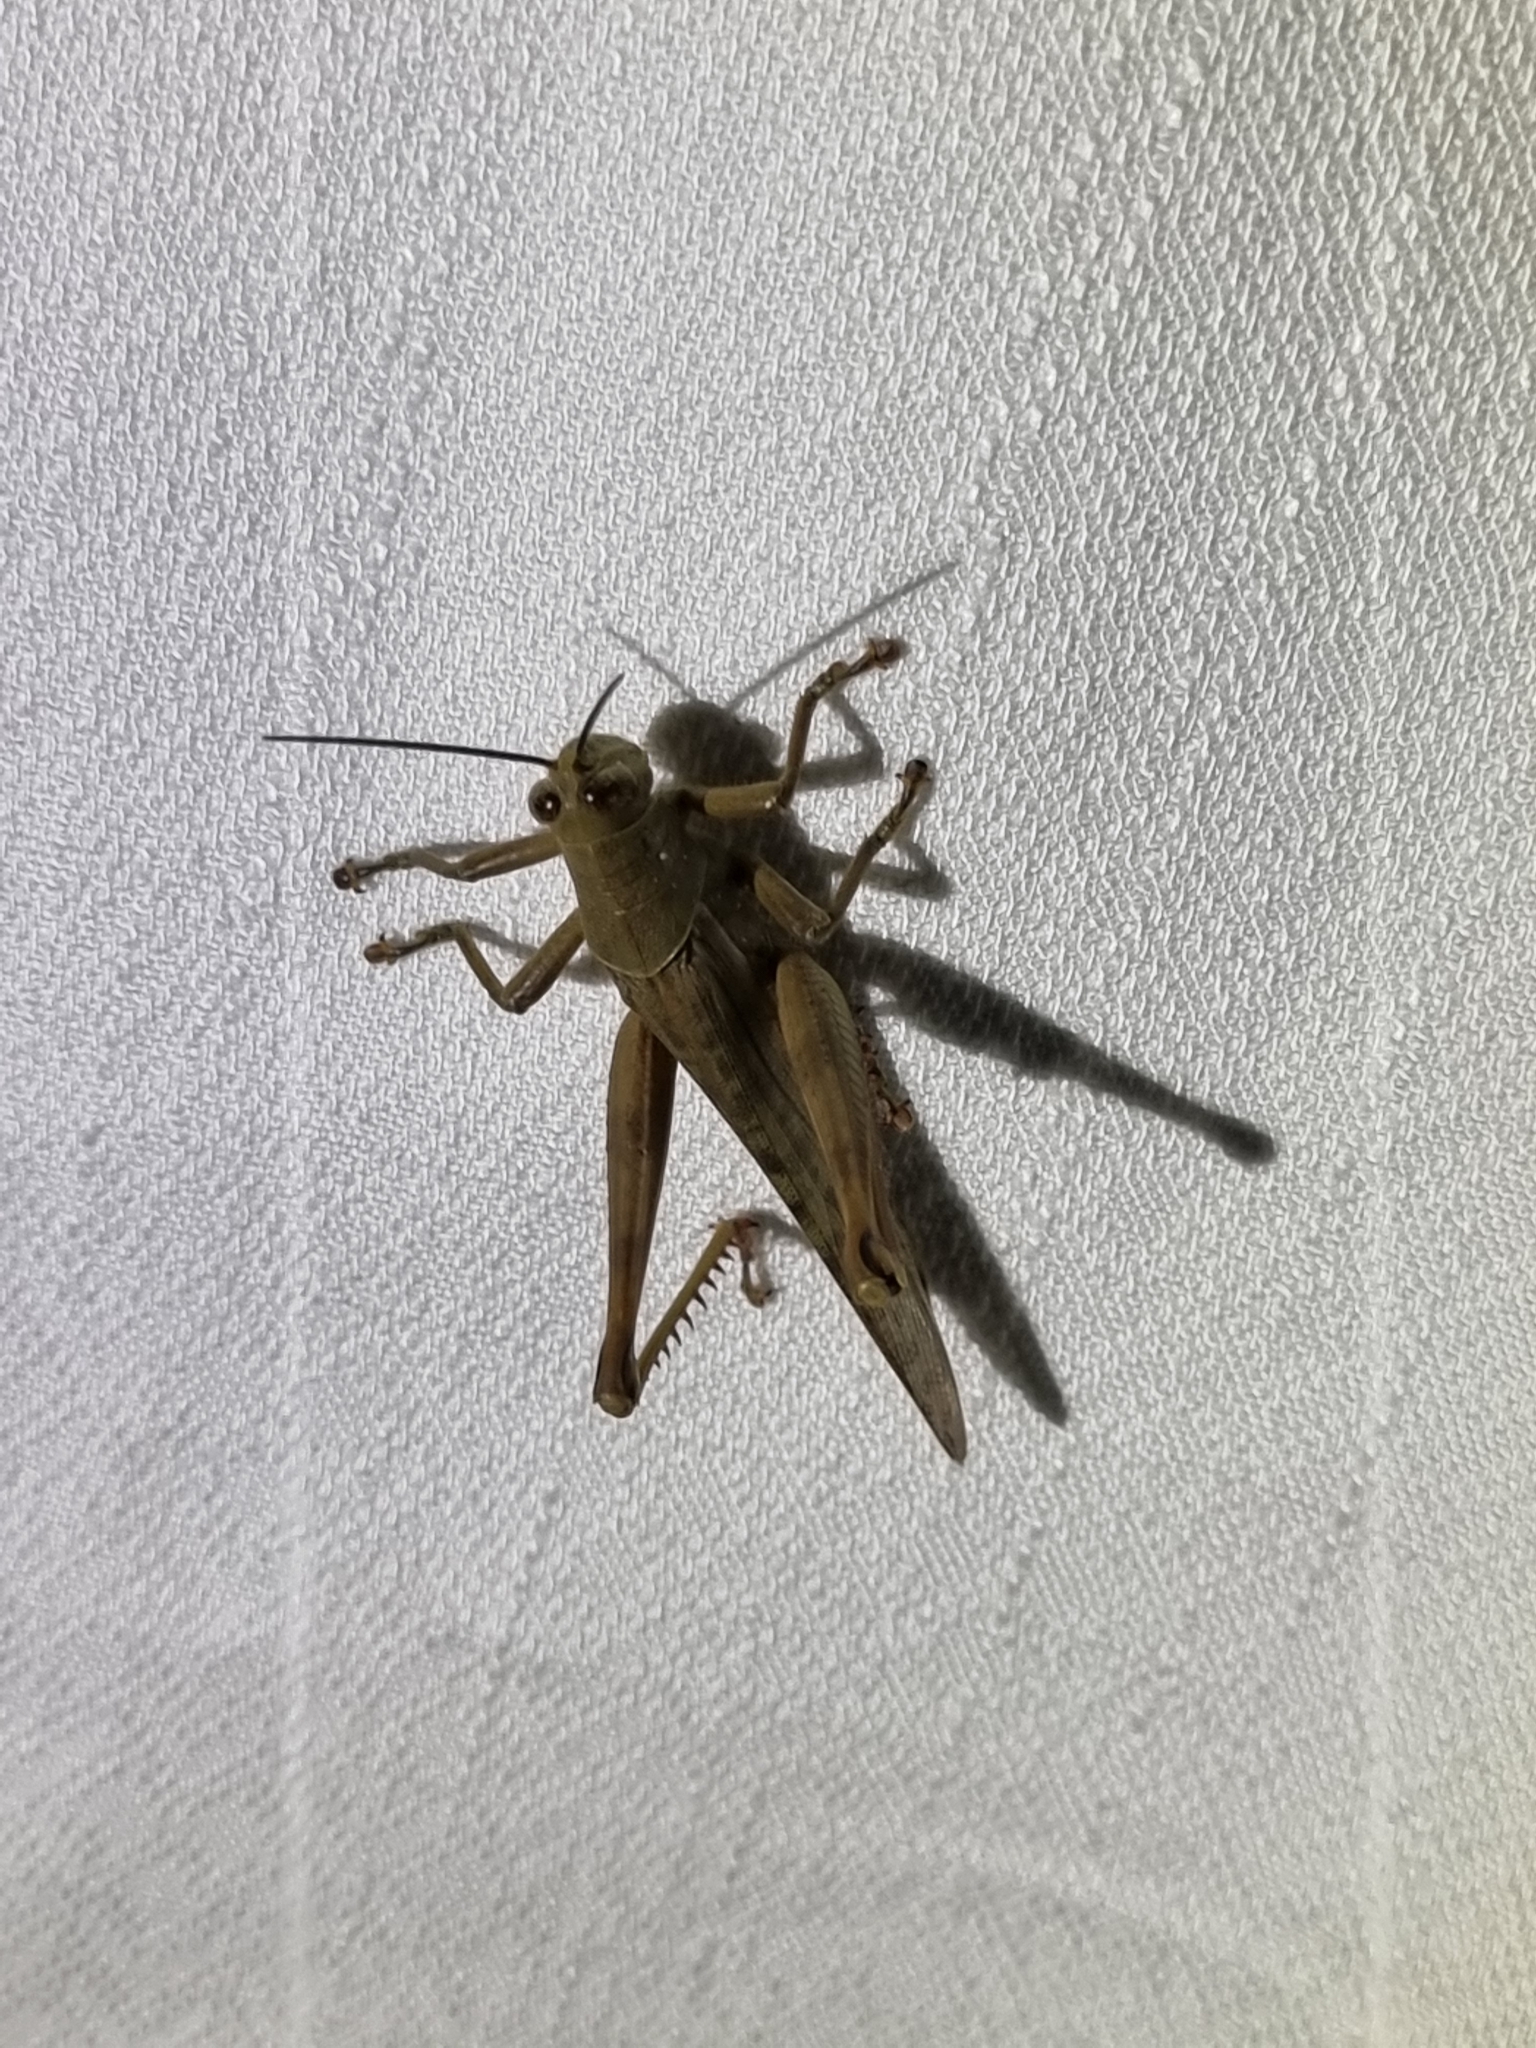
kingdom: Animalia
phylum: Arthropoda
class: Insecta
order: Orthoptera
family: Acrididae
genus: Valanga
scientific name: Valanga irregularis
